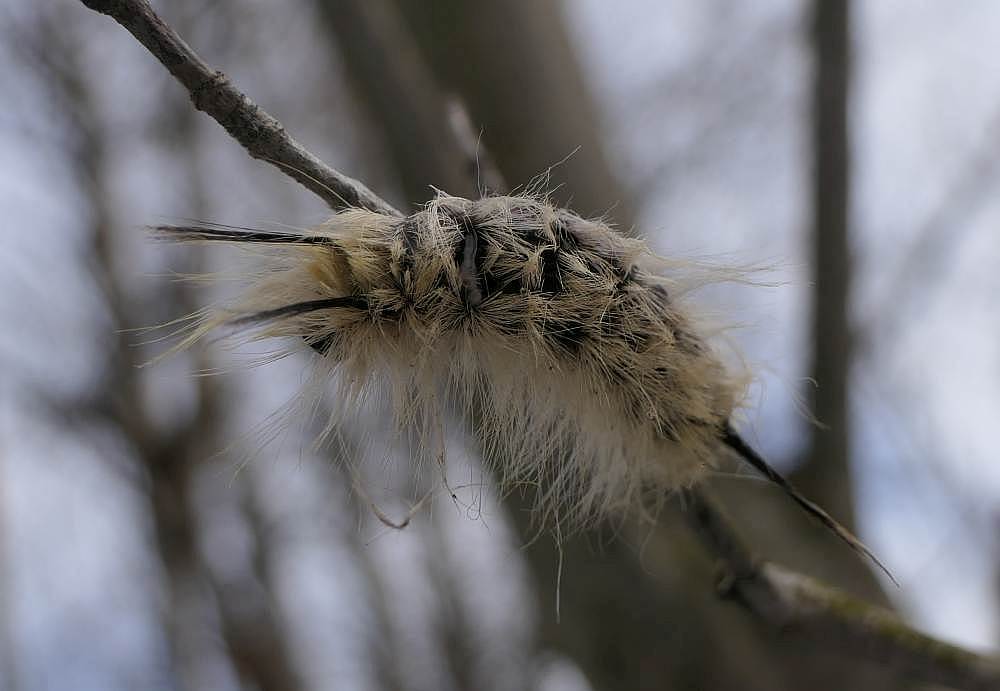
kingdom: Animalia
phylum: Arthropoda
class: Insecta
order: Lepidoptera
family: Noctuidae
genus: Acronicta
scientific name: Acronicta americana
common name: American dagger
